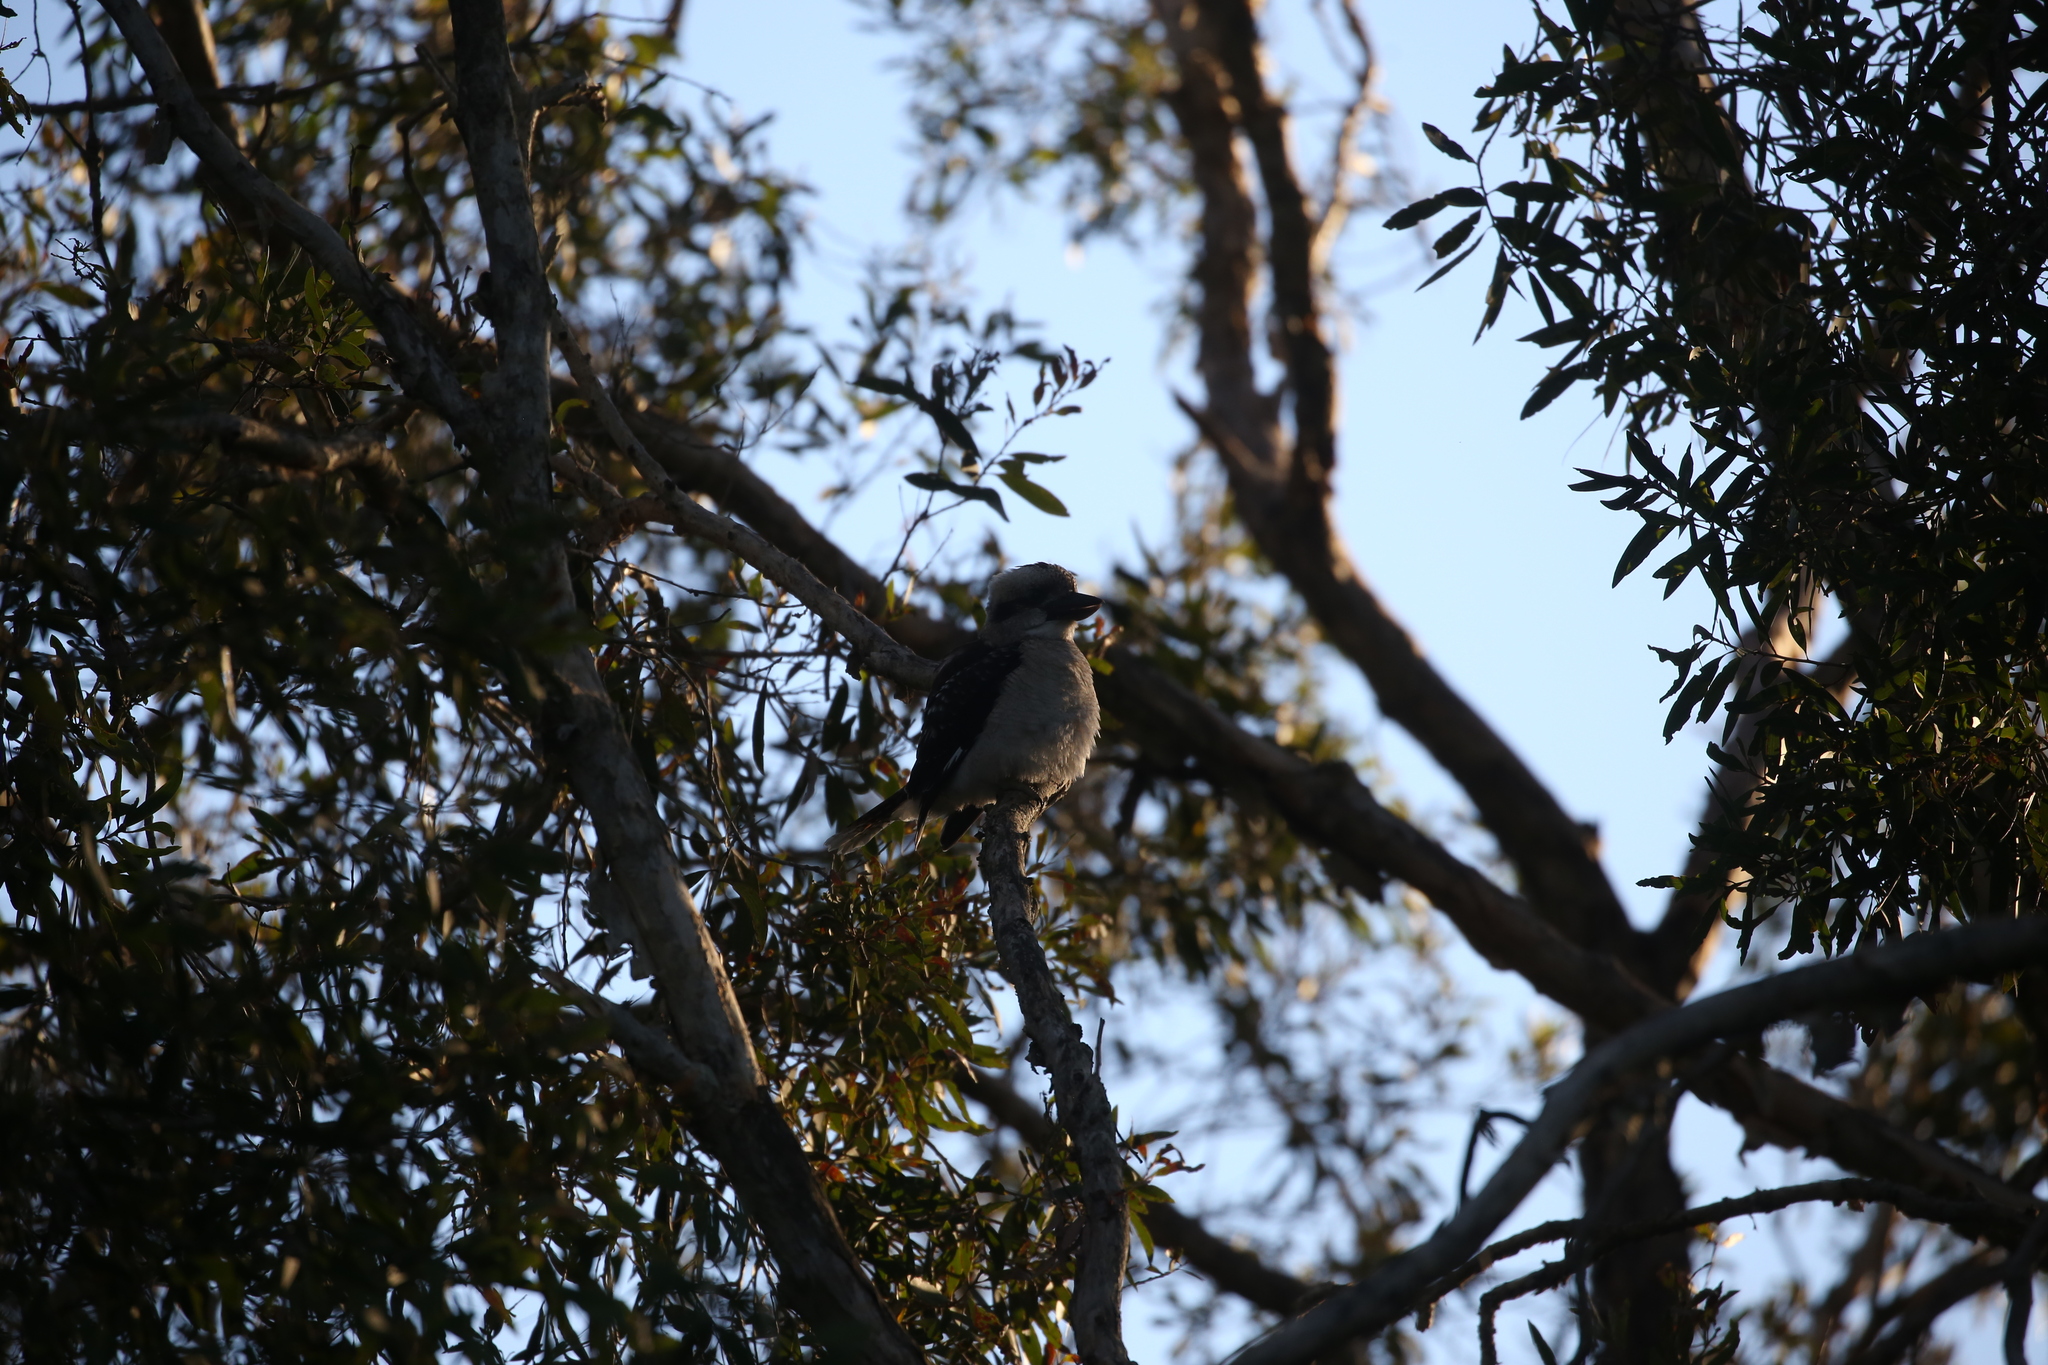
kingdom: Animalia
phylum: Chordata
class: Aves
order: Coraciiformes
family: Alcedinidae
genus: Dacelo
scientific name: Dacelo novaeguineae
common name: Laughing kookaburra
